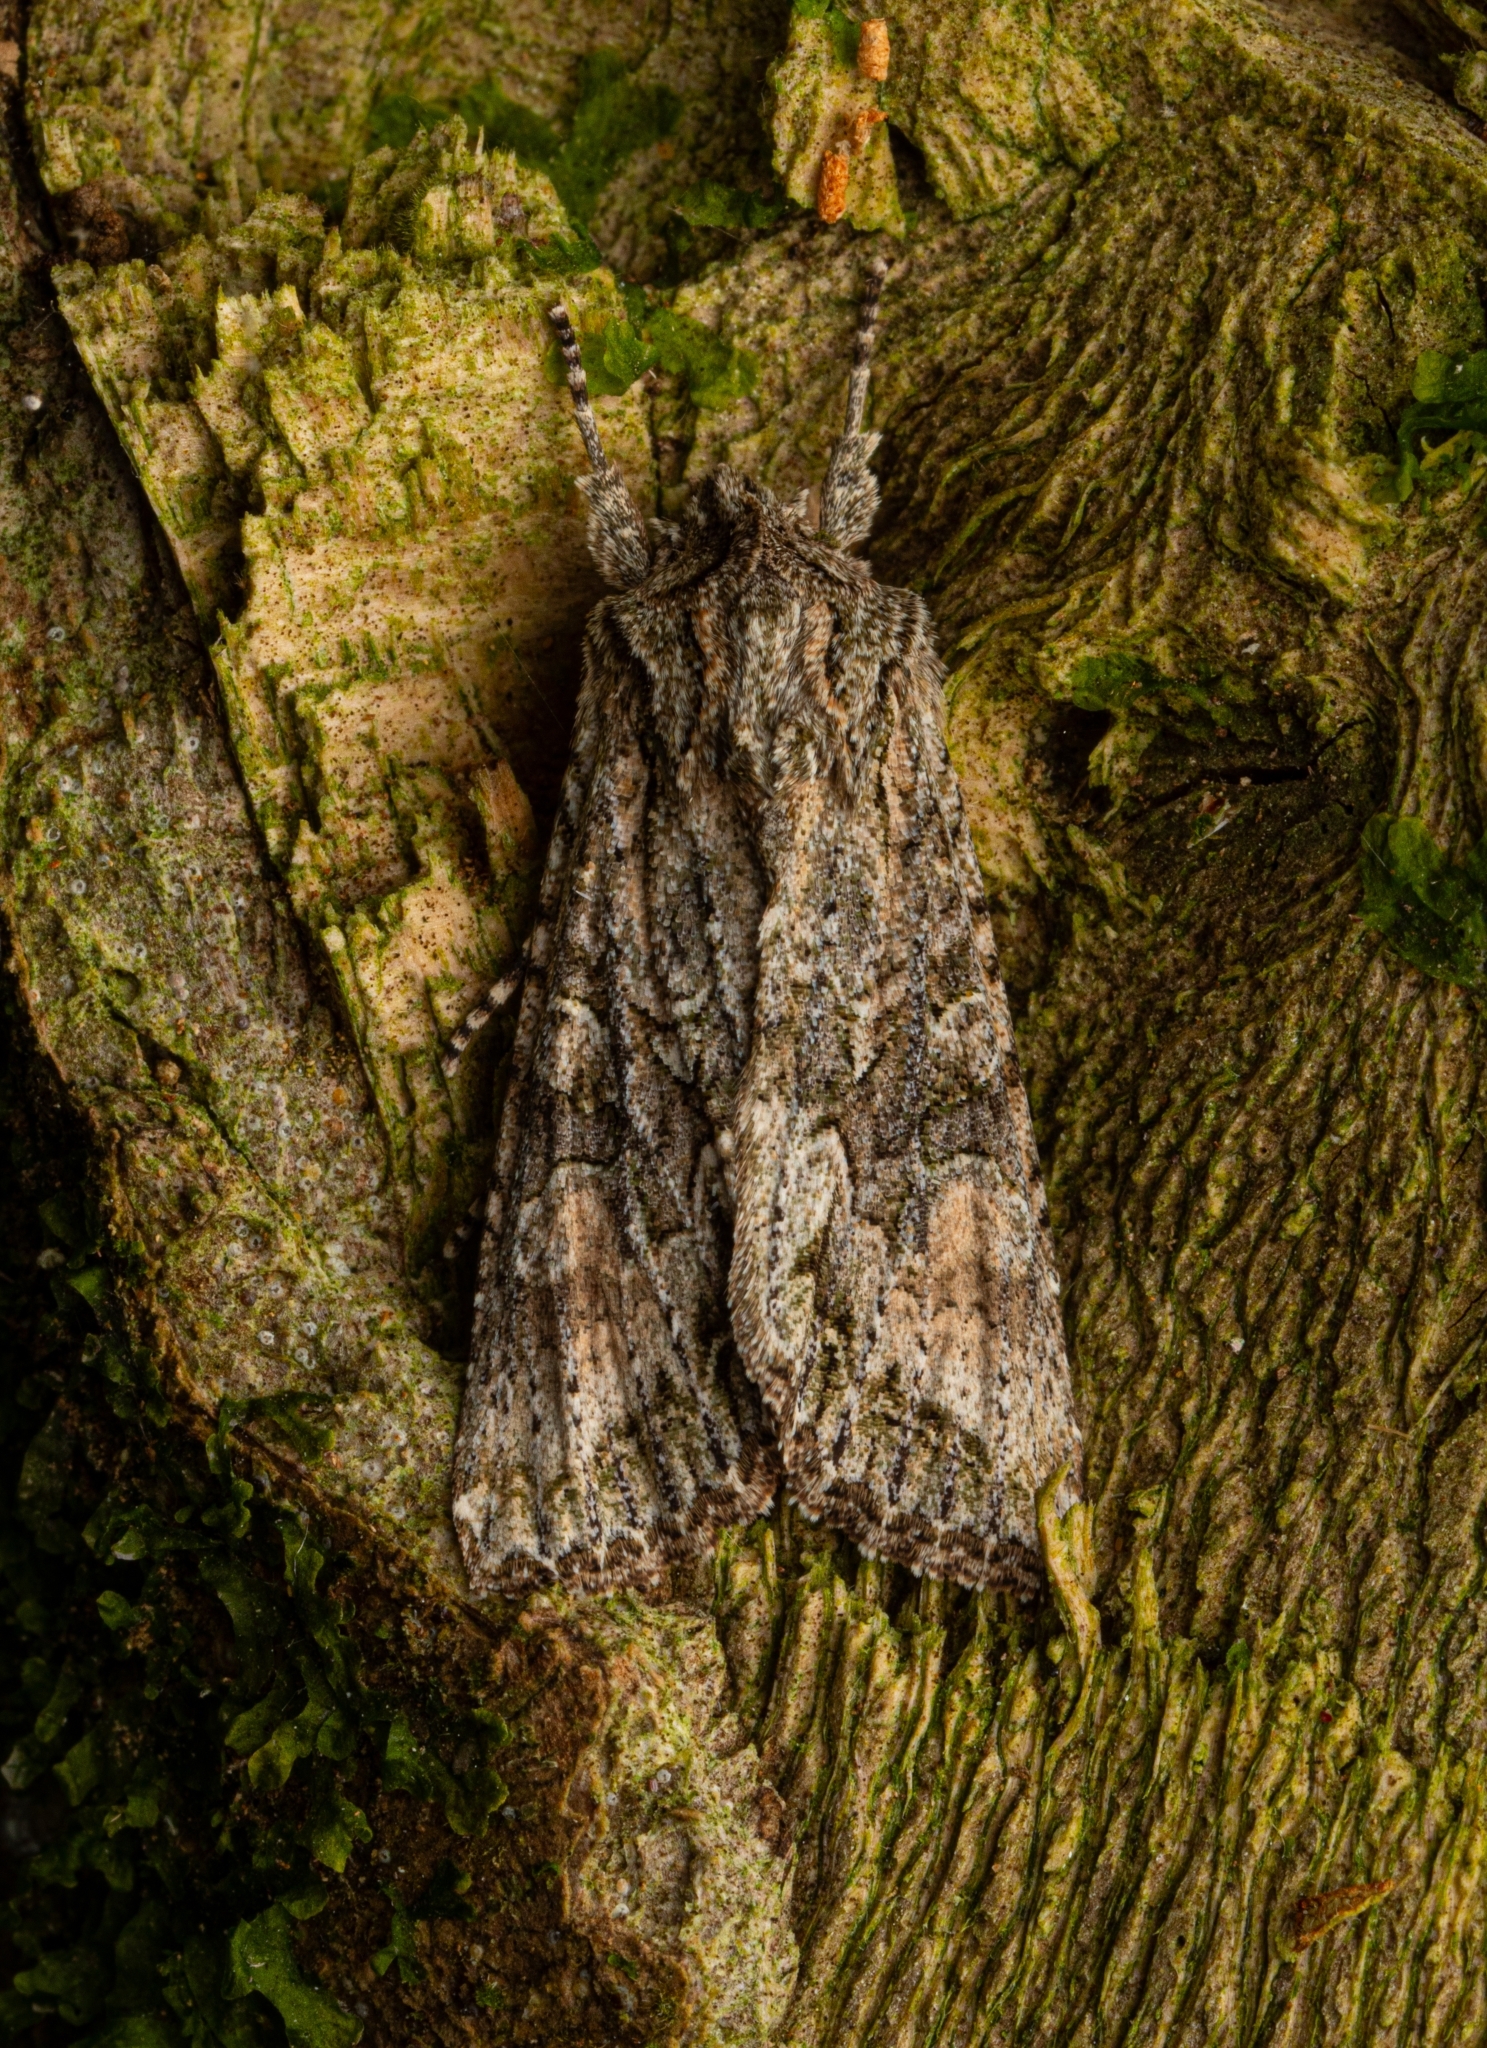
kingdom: Animalia
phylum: Arthropoda
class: Insecta
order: Lepidoptera
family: Noctuidae
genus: Ichneutica
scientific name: Ichneutica mutans
